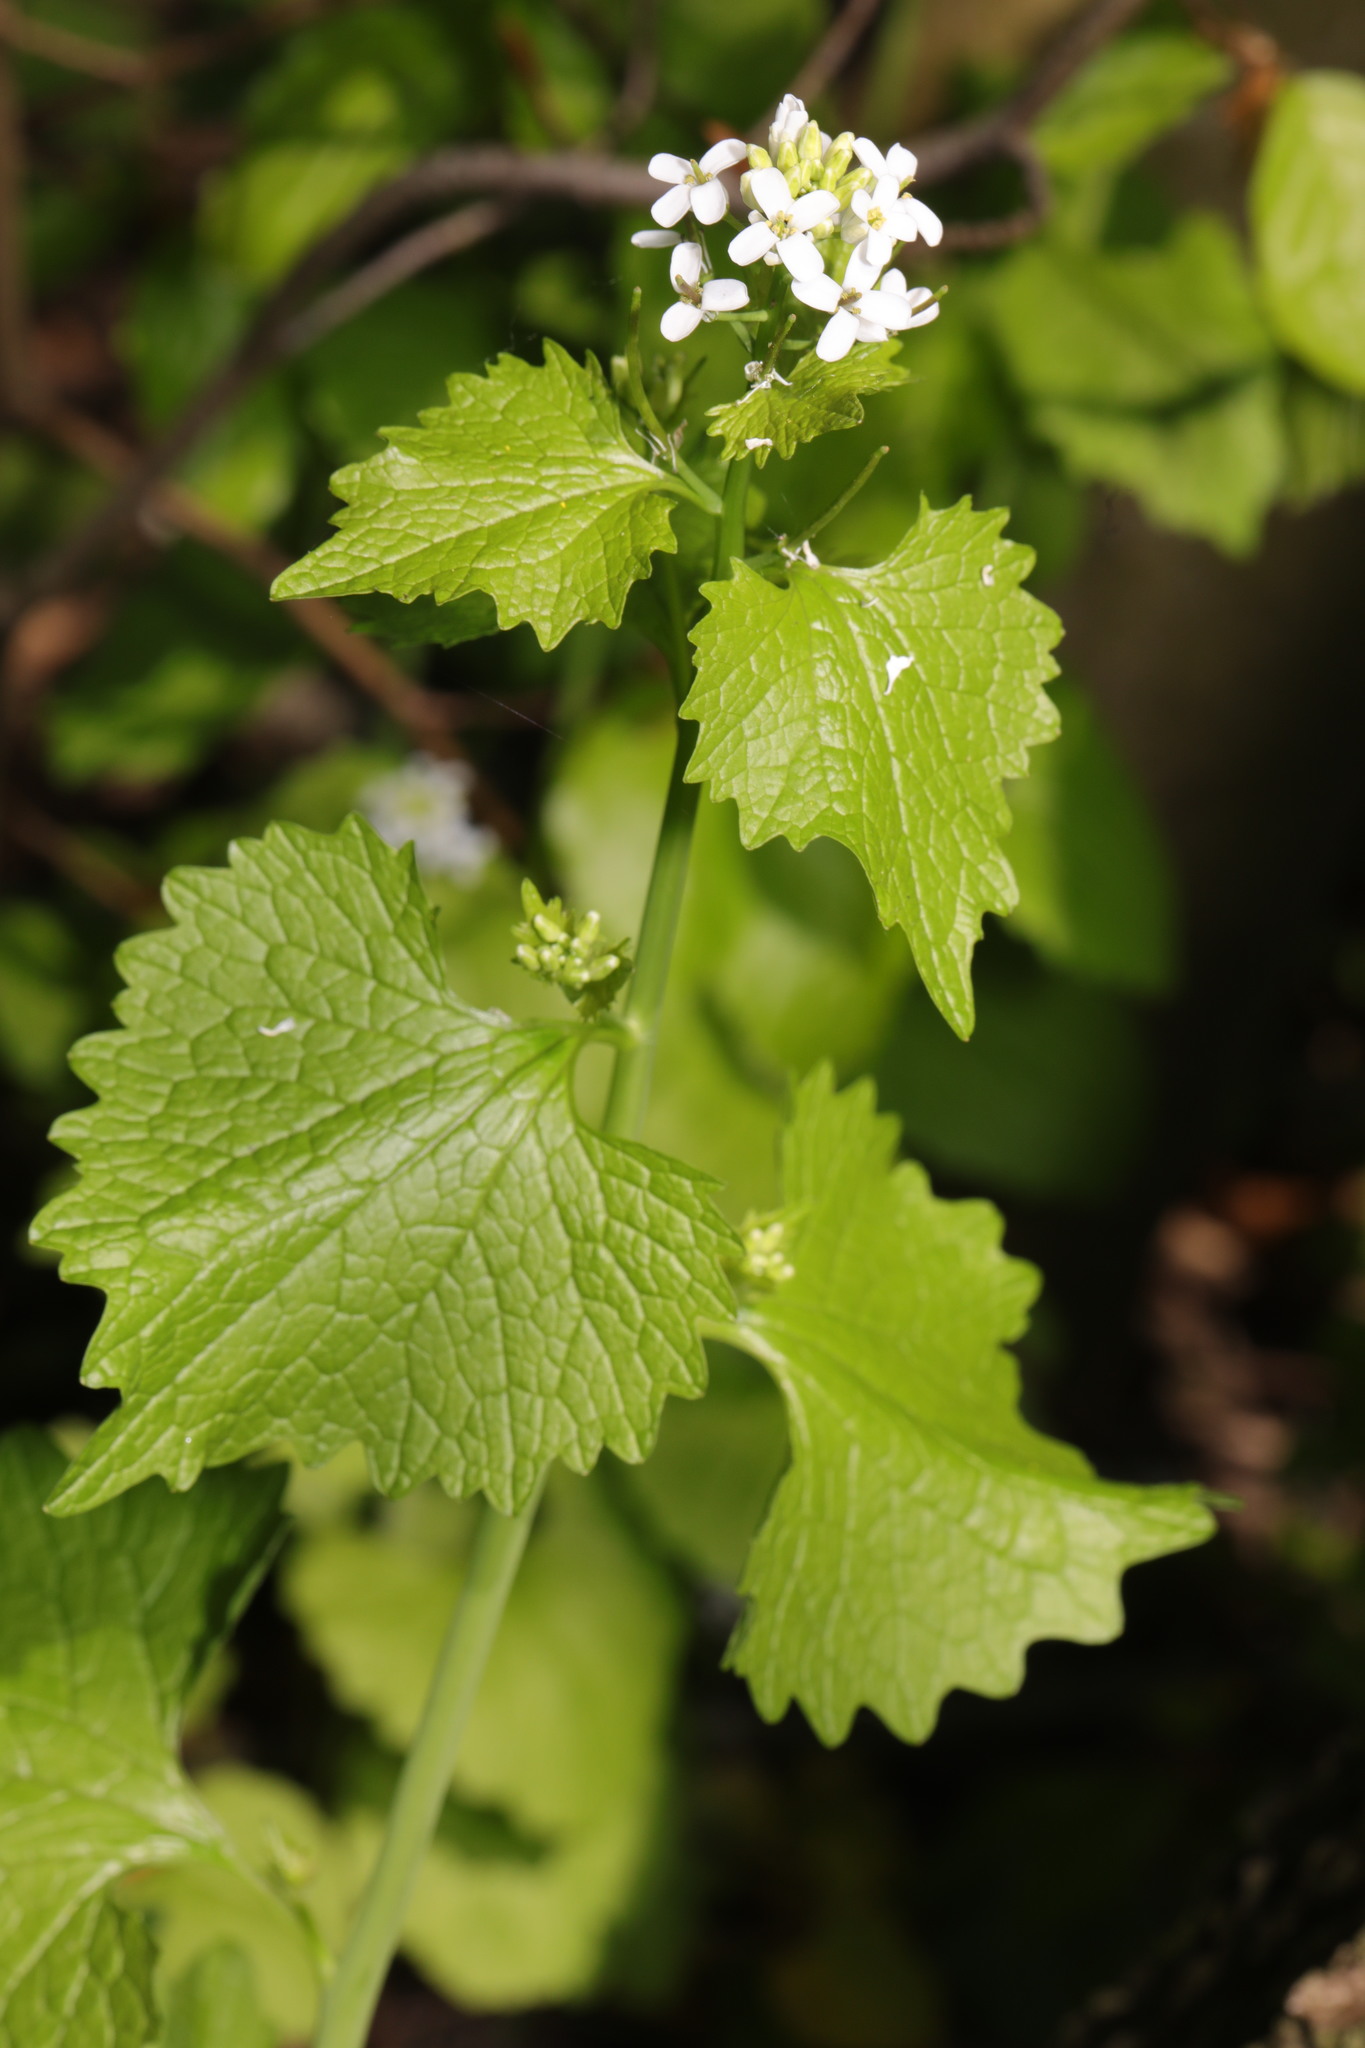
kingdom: Plantae
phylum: Tracheophyta
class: Magnoliopsida
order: Brassicales
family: Brassicaceae
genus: Alliaria
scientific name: Alliaria petiolata
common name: Garlic mustard
